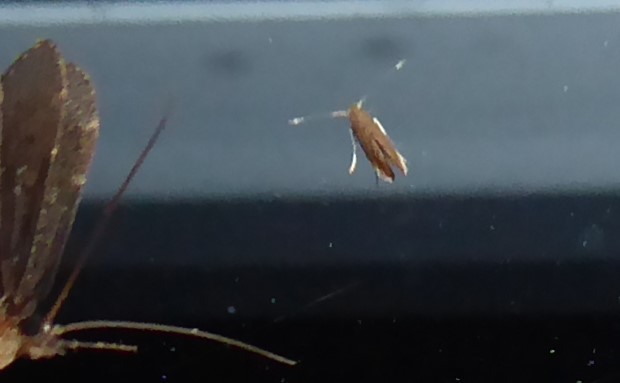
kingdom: Animalia
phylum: Arthropoda
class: Insecta
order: Lepidoptera
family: Gracillariidae
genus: Phyllonorycter
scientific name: Phyllonorycter messaniella
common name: Garden midget
